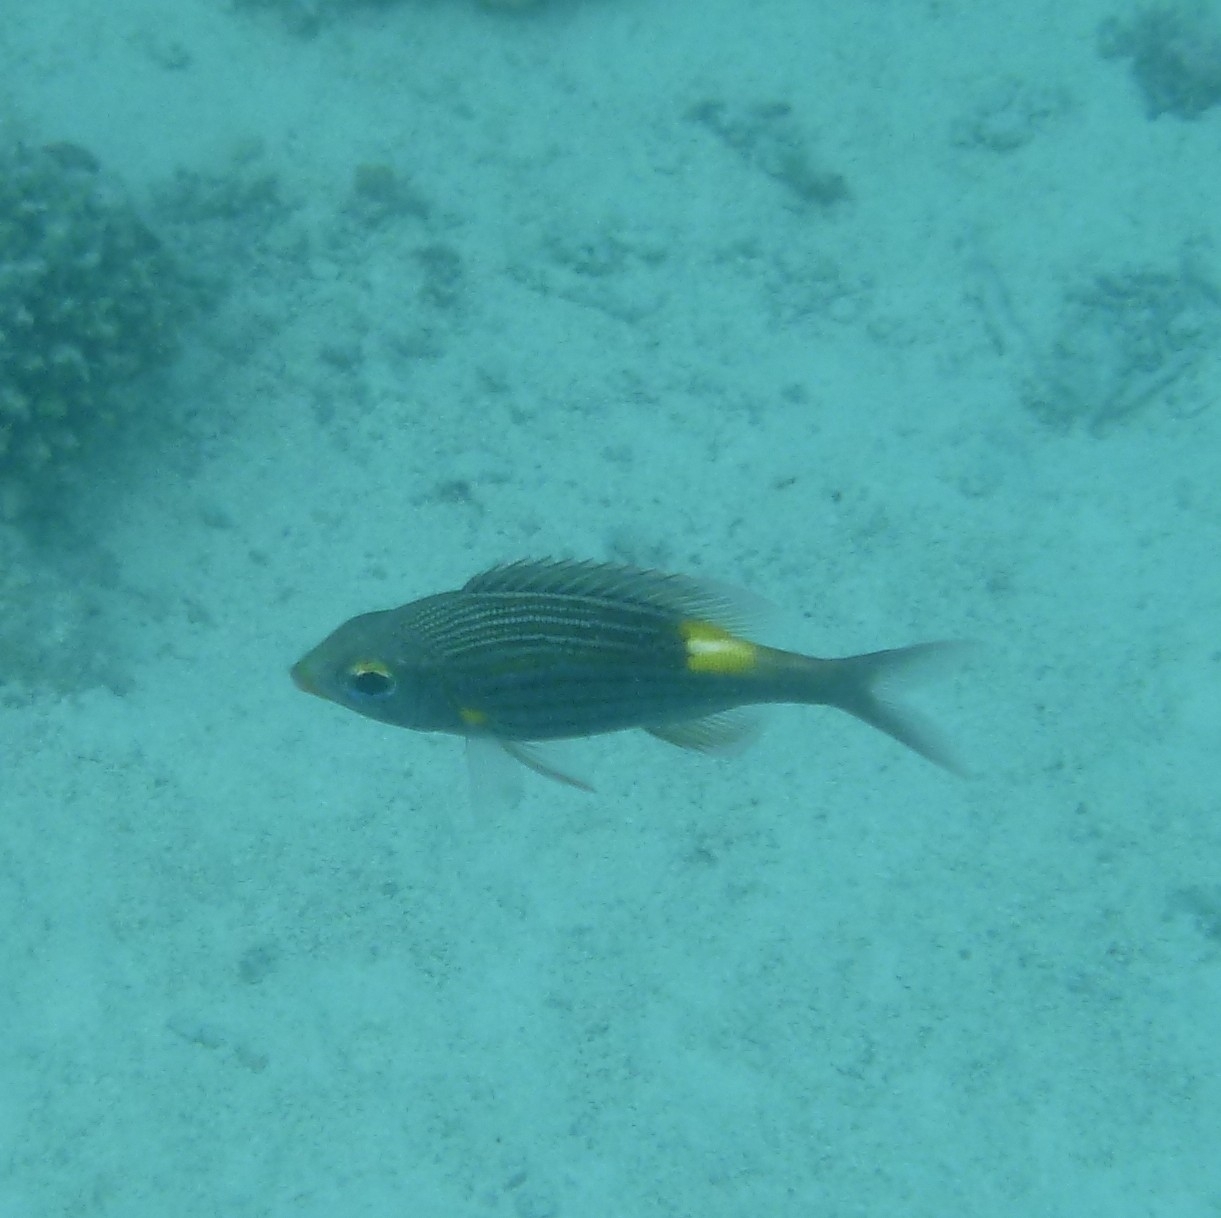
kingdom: Animalia
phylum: Chordata
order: Perciformes
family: Lethrinidae
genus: Gnathodentex
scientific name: Gnathodentex aureolineatus
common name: Gold-lined sea bream
